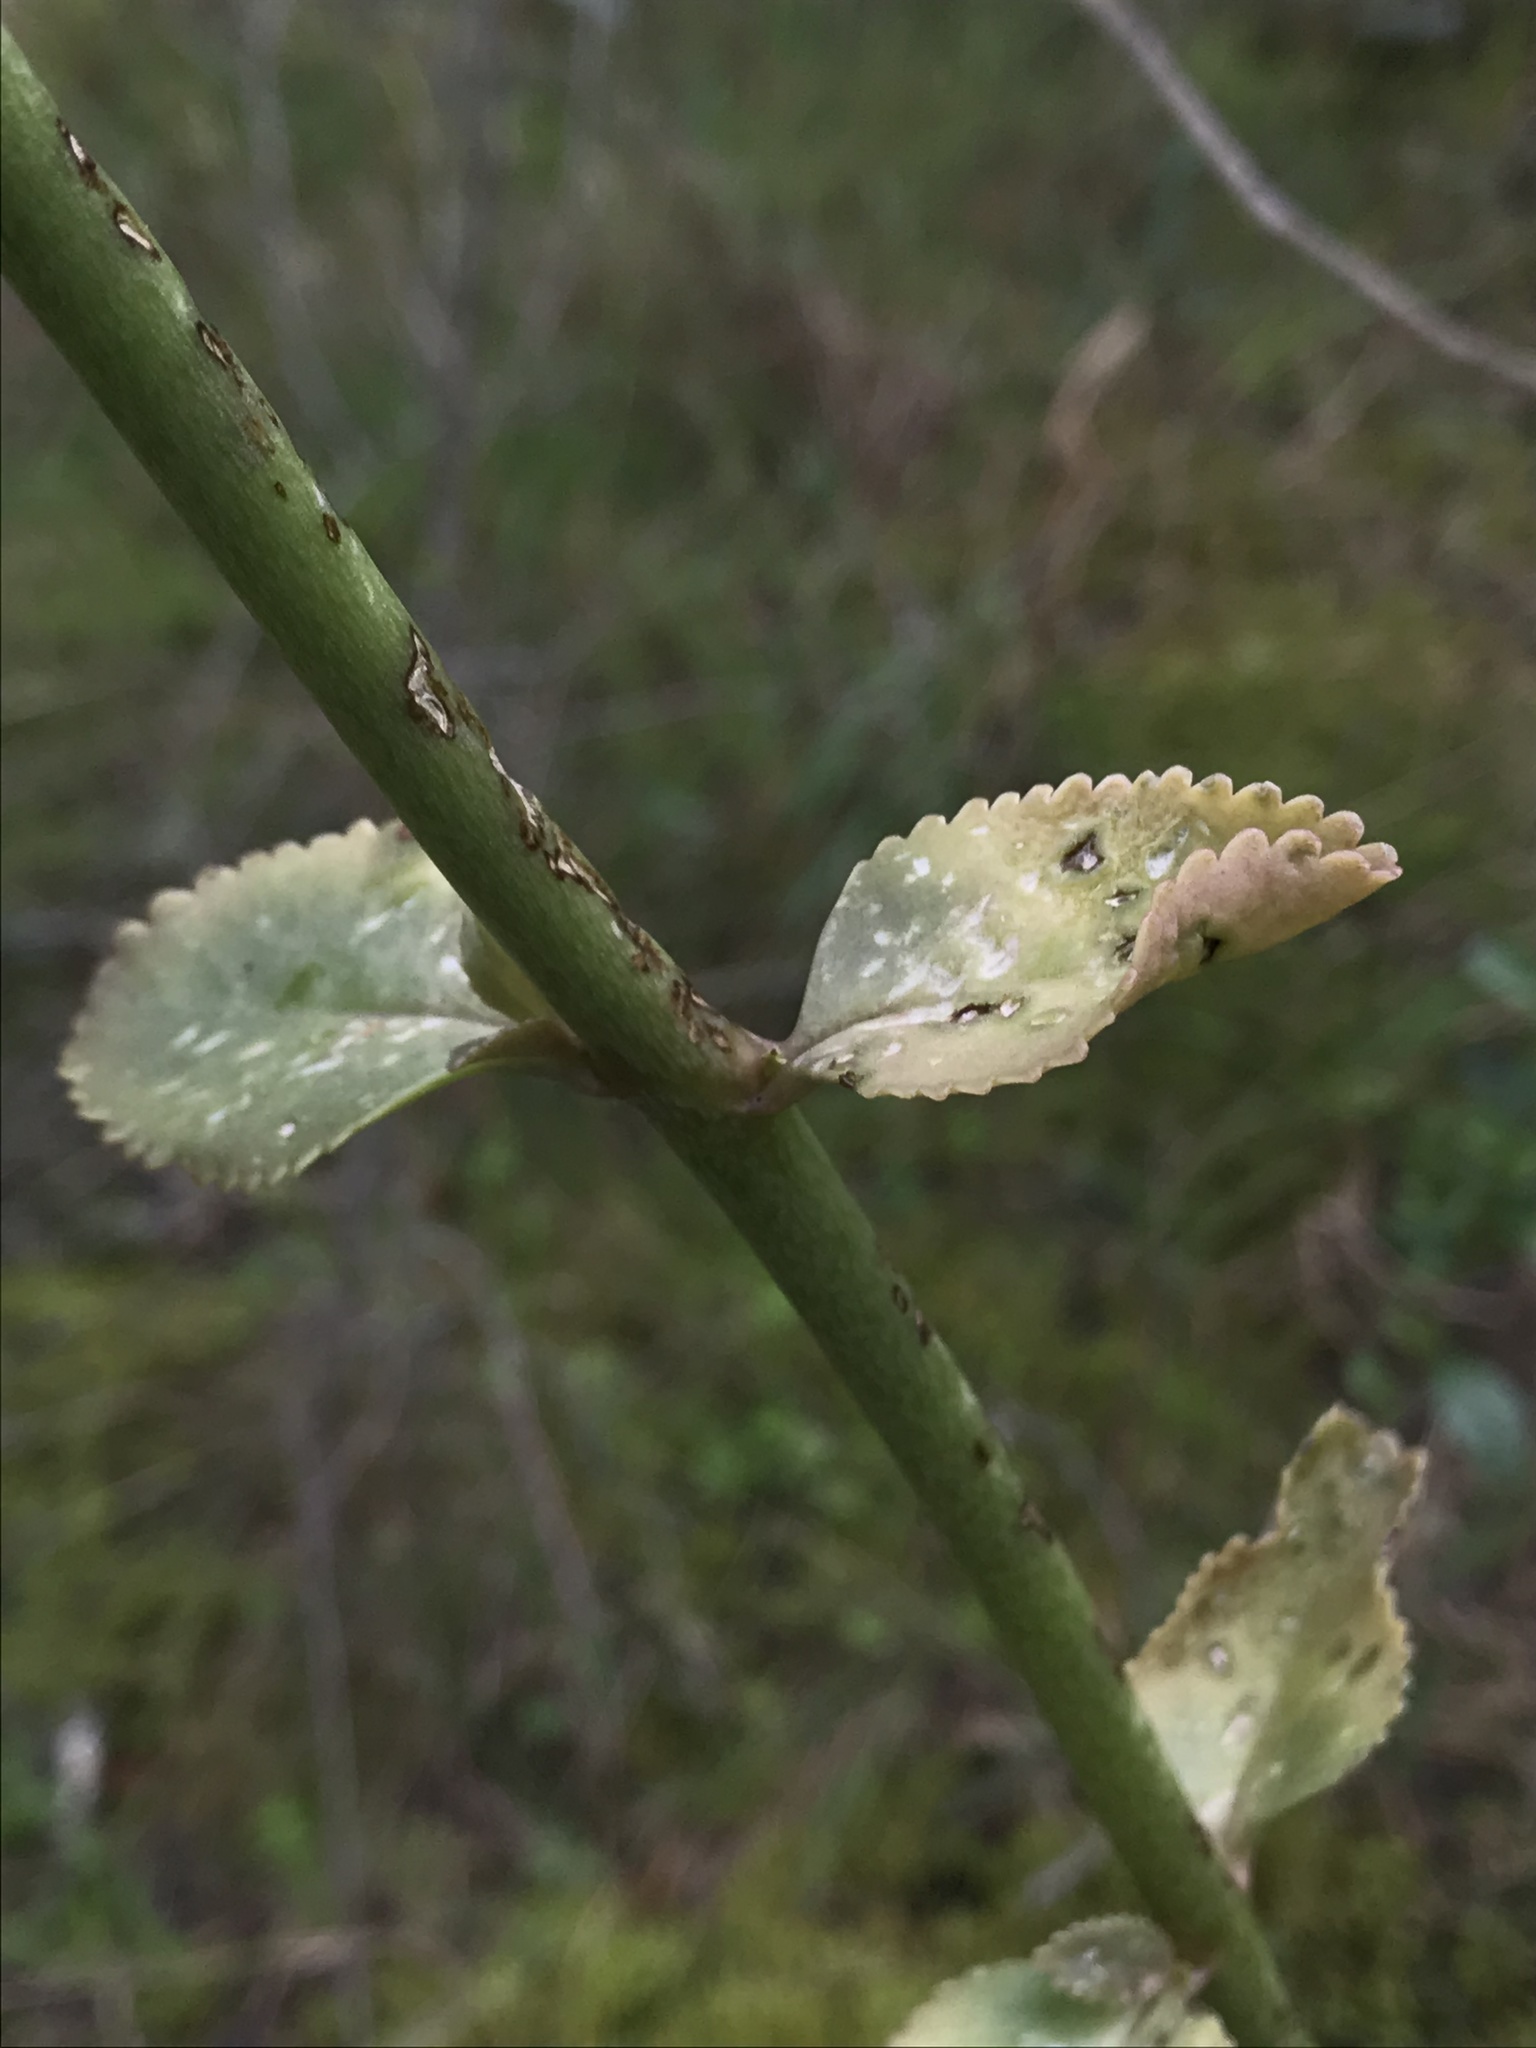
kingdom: Plantae
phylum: Tracheophyta
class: Magnoliopsida
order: Saxifragales
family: Crassulaceae
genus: Kalanchoe
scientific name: Kalanchoe densiflora
